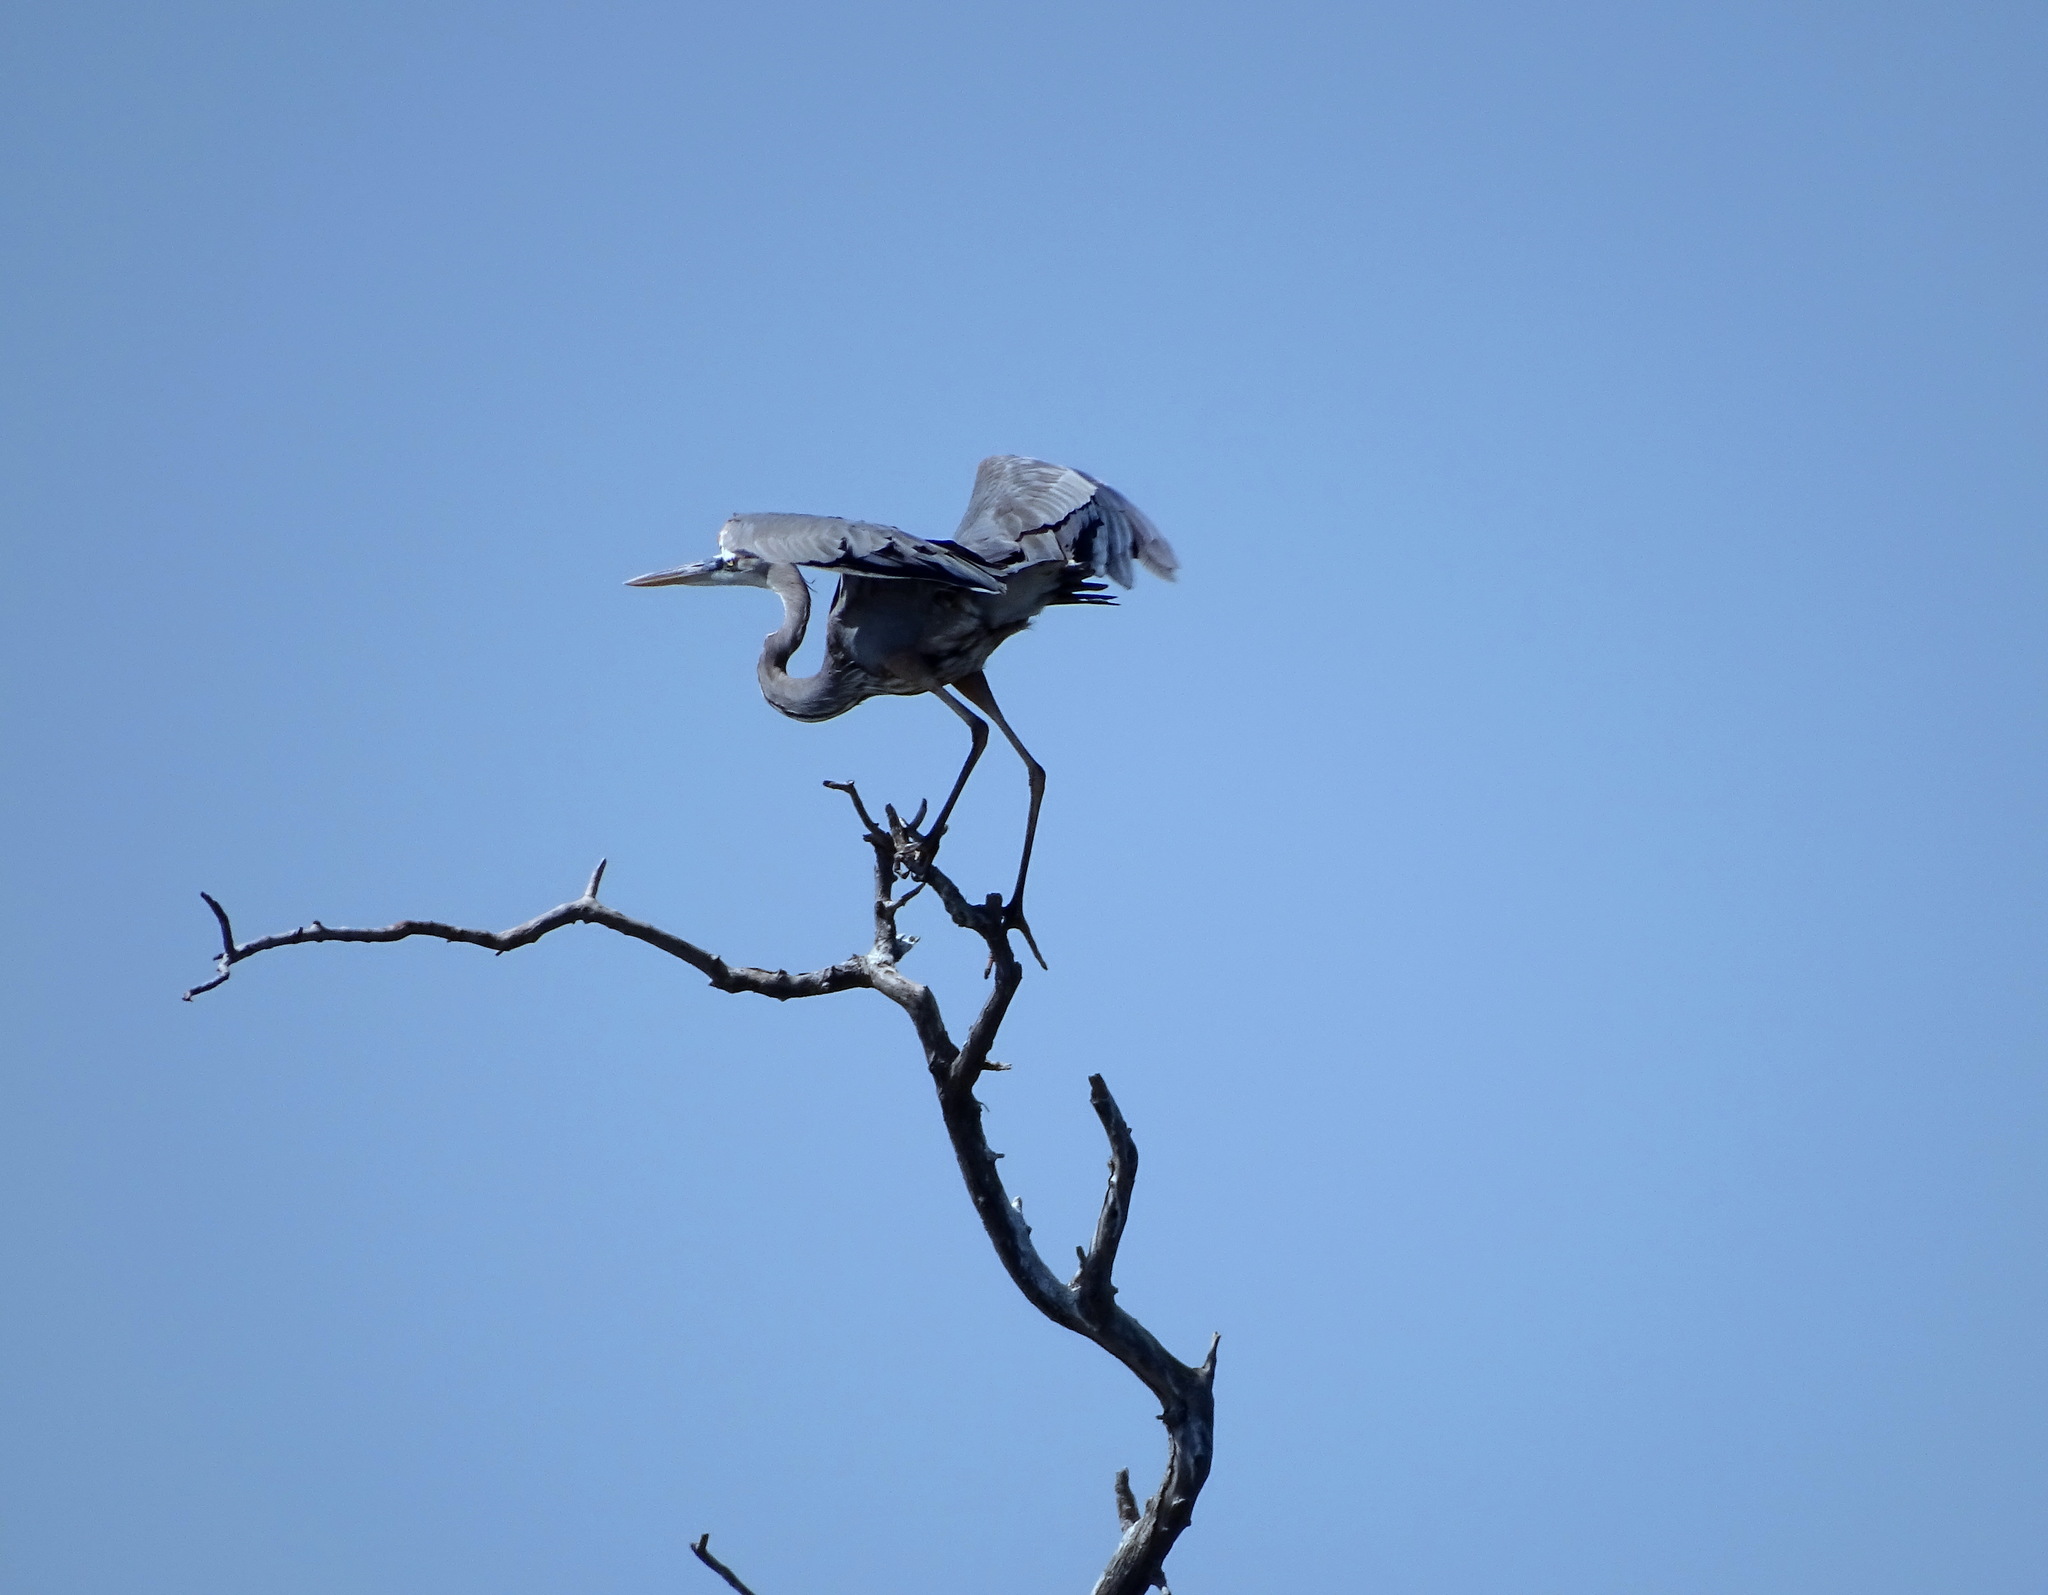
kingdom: Animalia
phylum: Chordata
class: Aves
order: Pelecaniformes
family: Ardeidae
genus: Ardea
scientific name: Ardea herodias
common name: Great blue heron
